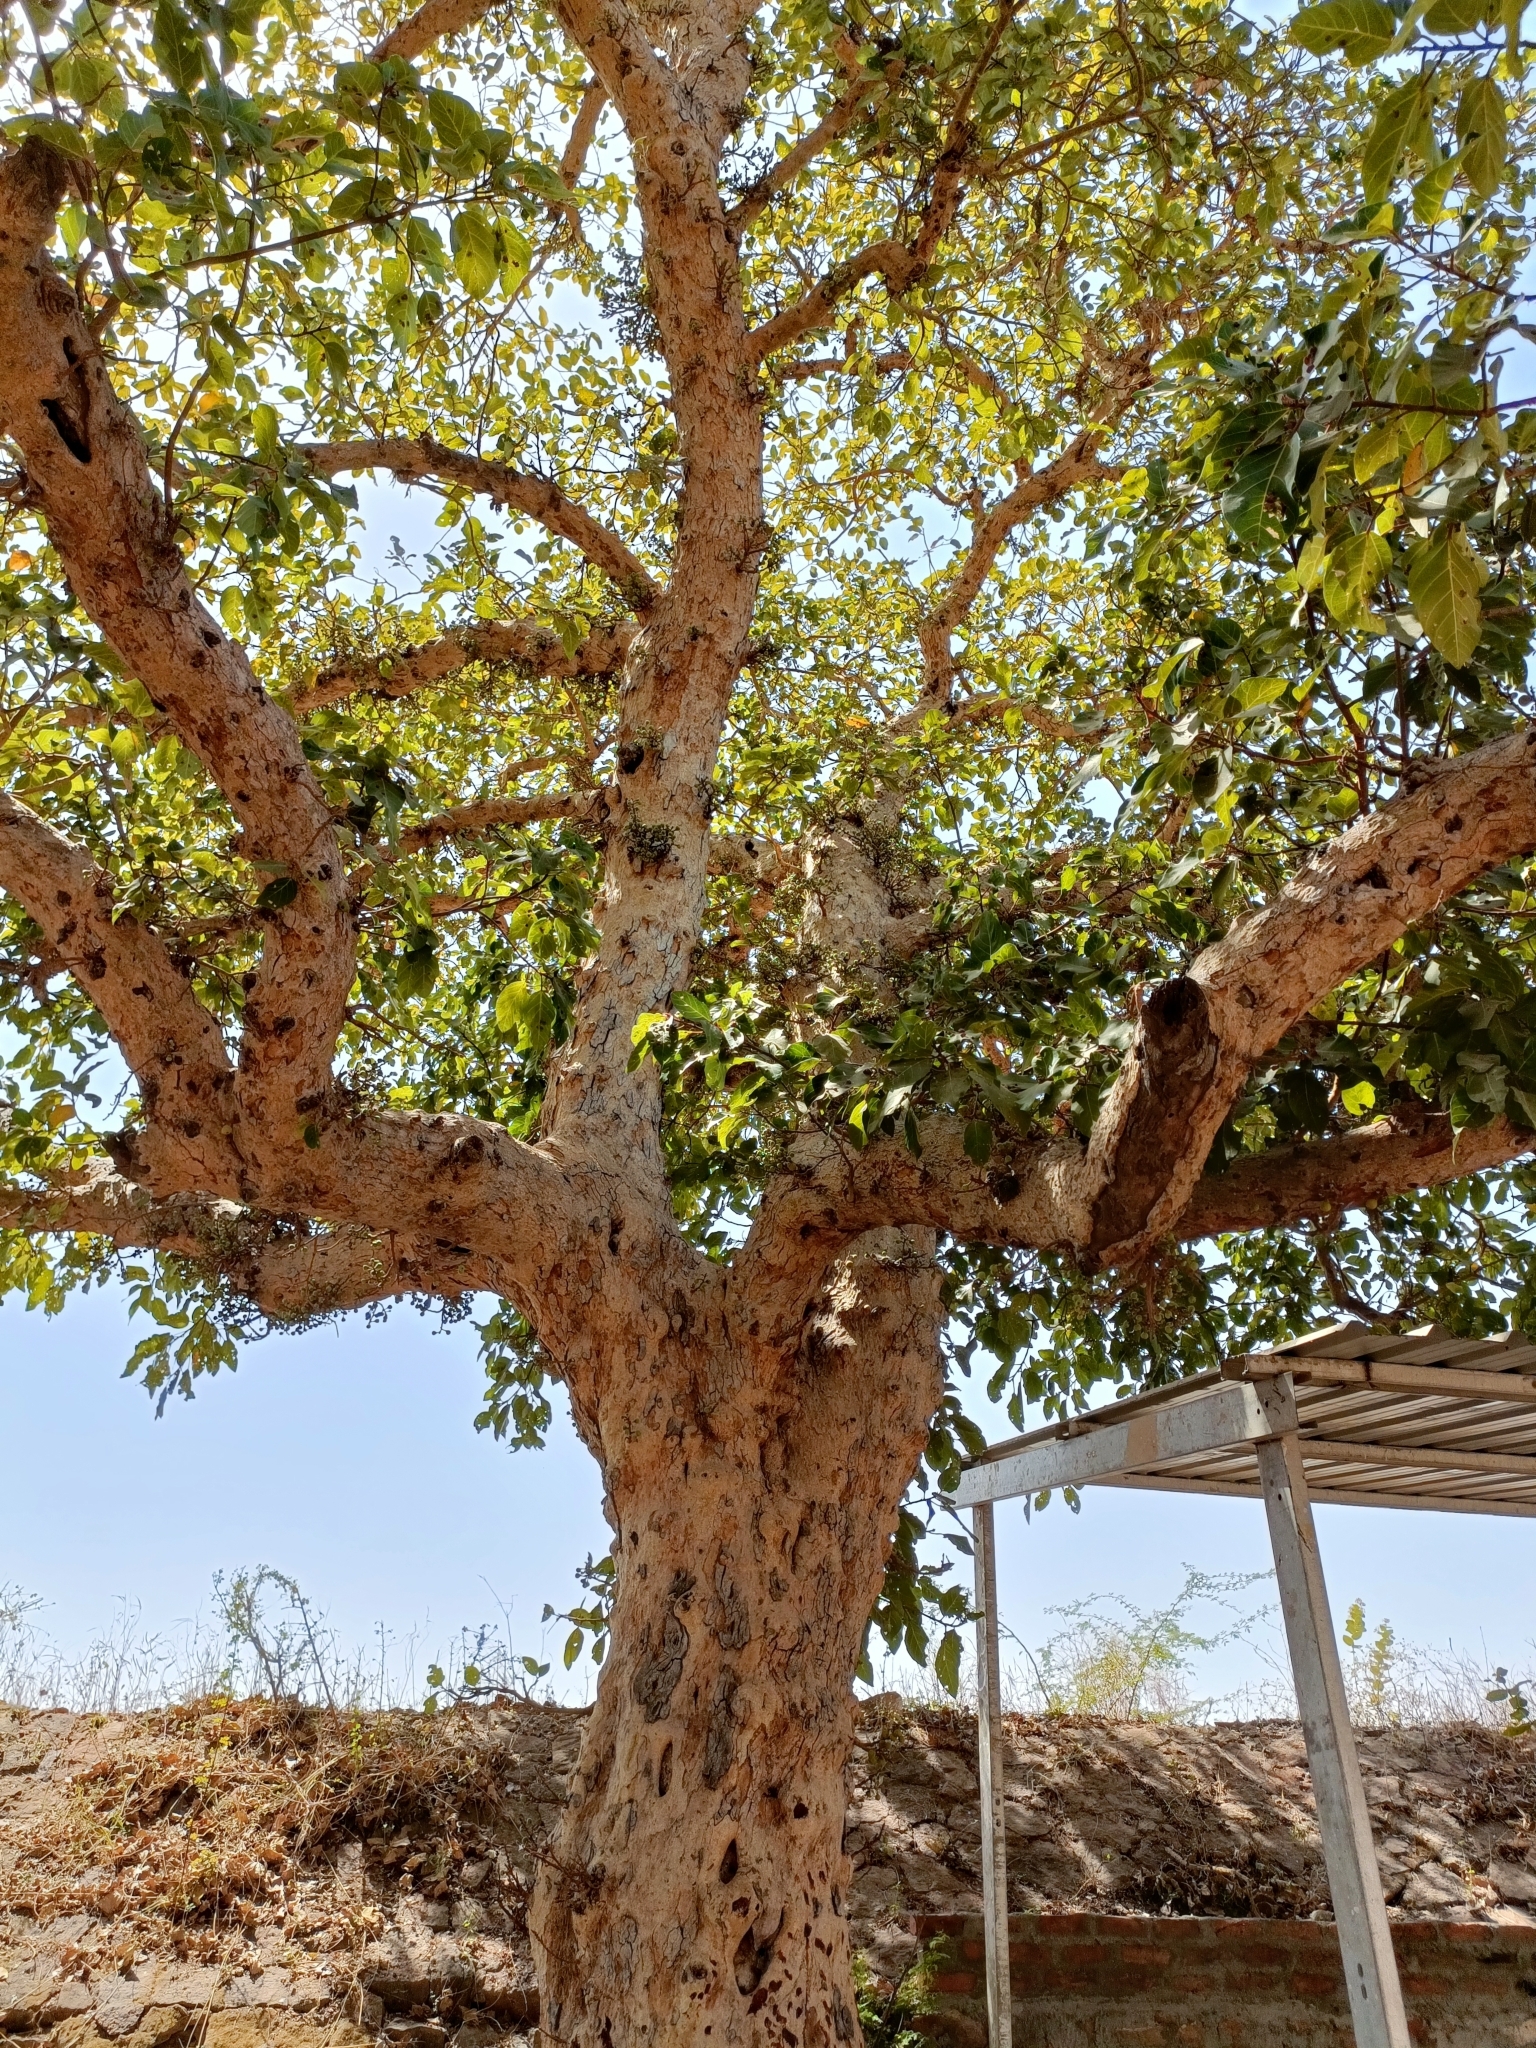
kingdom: Plantae
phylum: Tracheophyta
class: Magnoliopsida
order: Rosales
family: Moraceae
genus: Ficus
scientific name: Ficus racemosa
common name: Cluster fig
